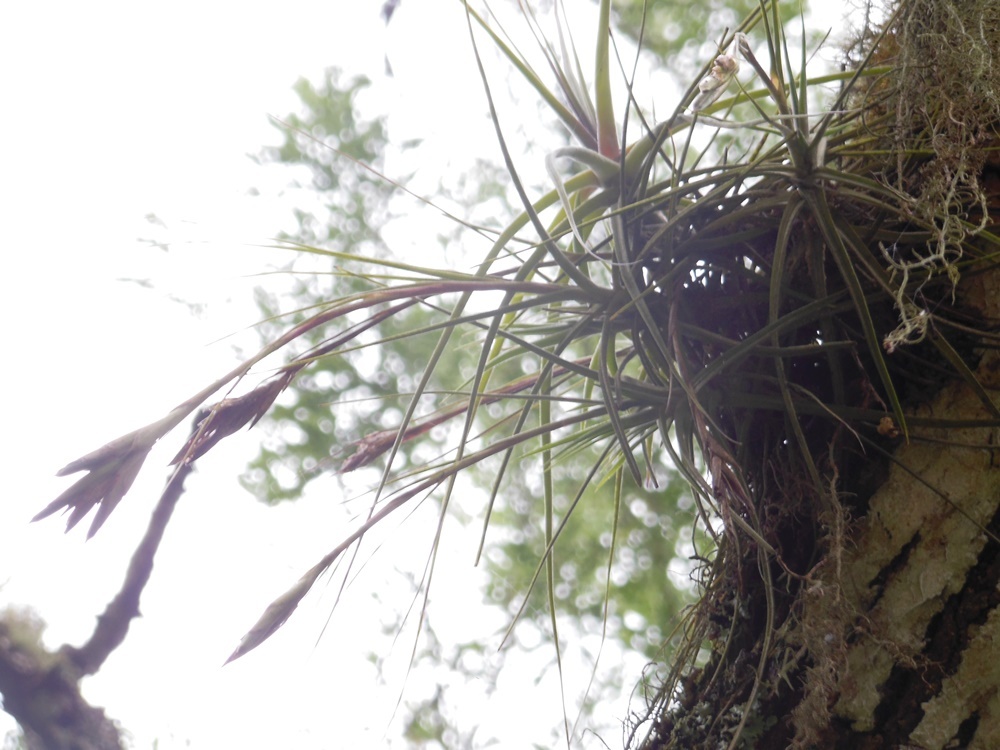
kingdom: Plantae
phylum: Tracheophyta
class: Liliopsida
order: Poales
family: Bromeliaceae
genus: Tillandsia
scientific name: Tillandsia schiedeana
